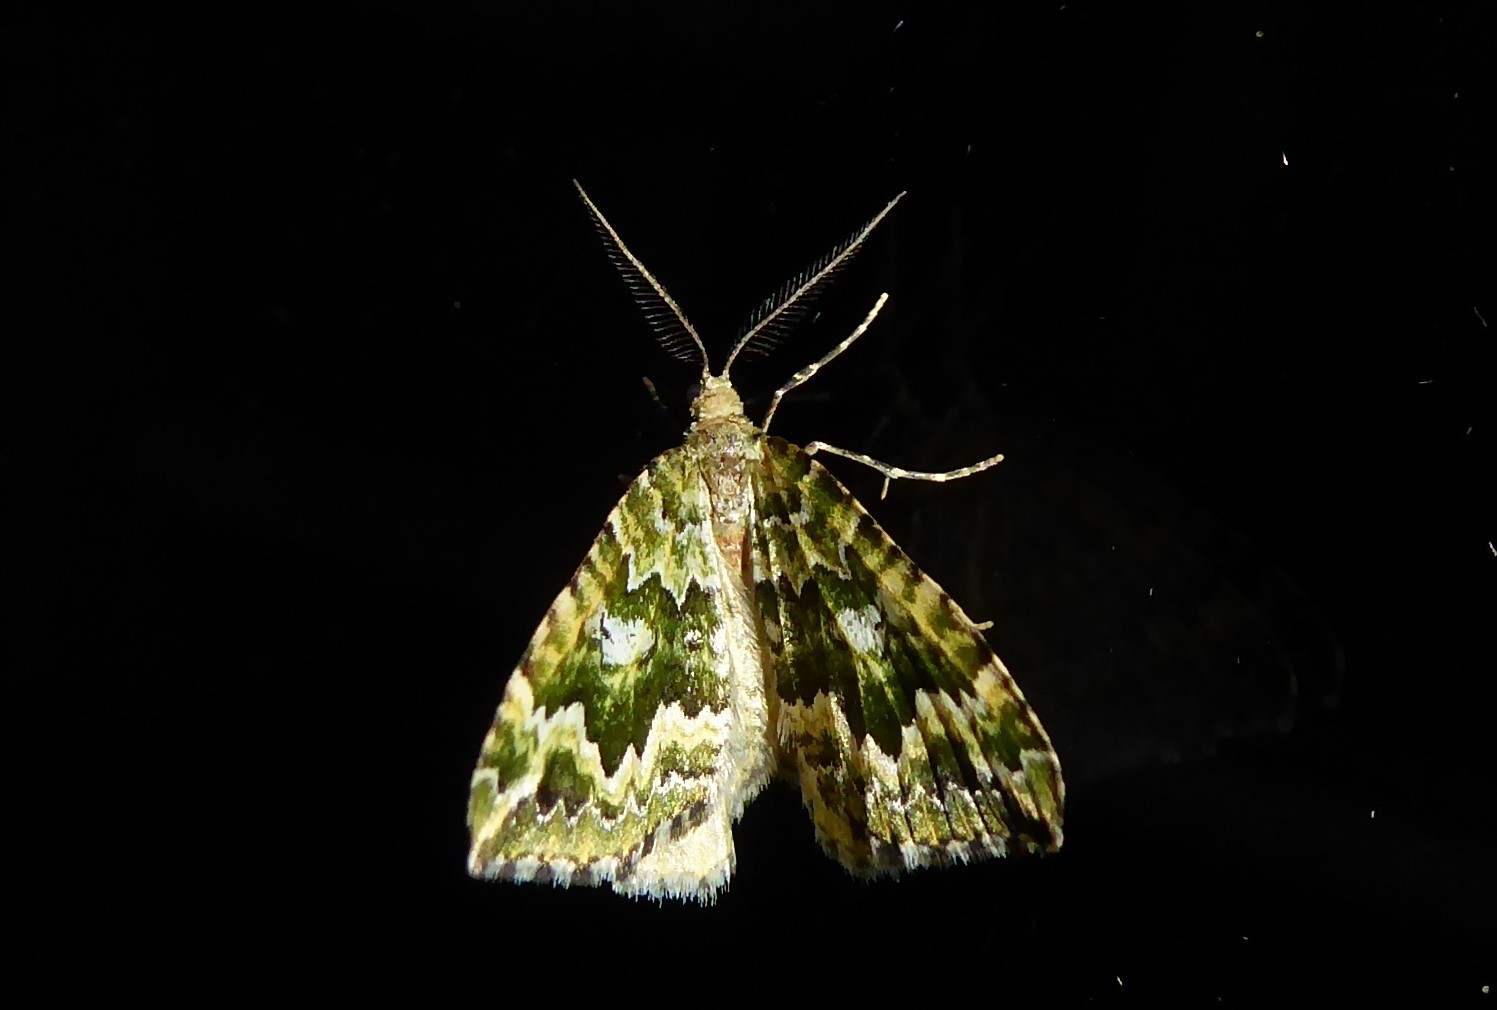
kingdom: Animalia
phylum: Arthropoda
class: Insecta
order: Lepidoptera
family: Geometridae
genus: Asaphodes
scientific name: Asaphodes beata
